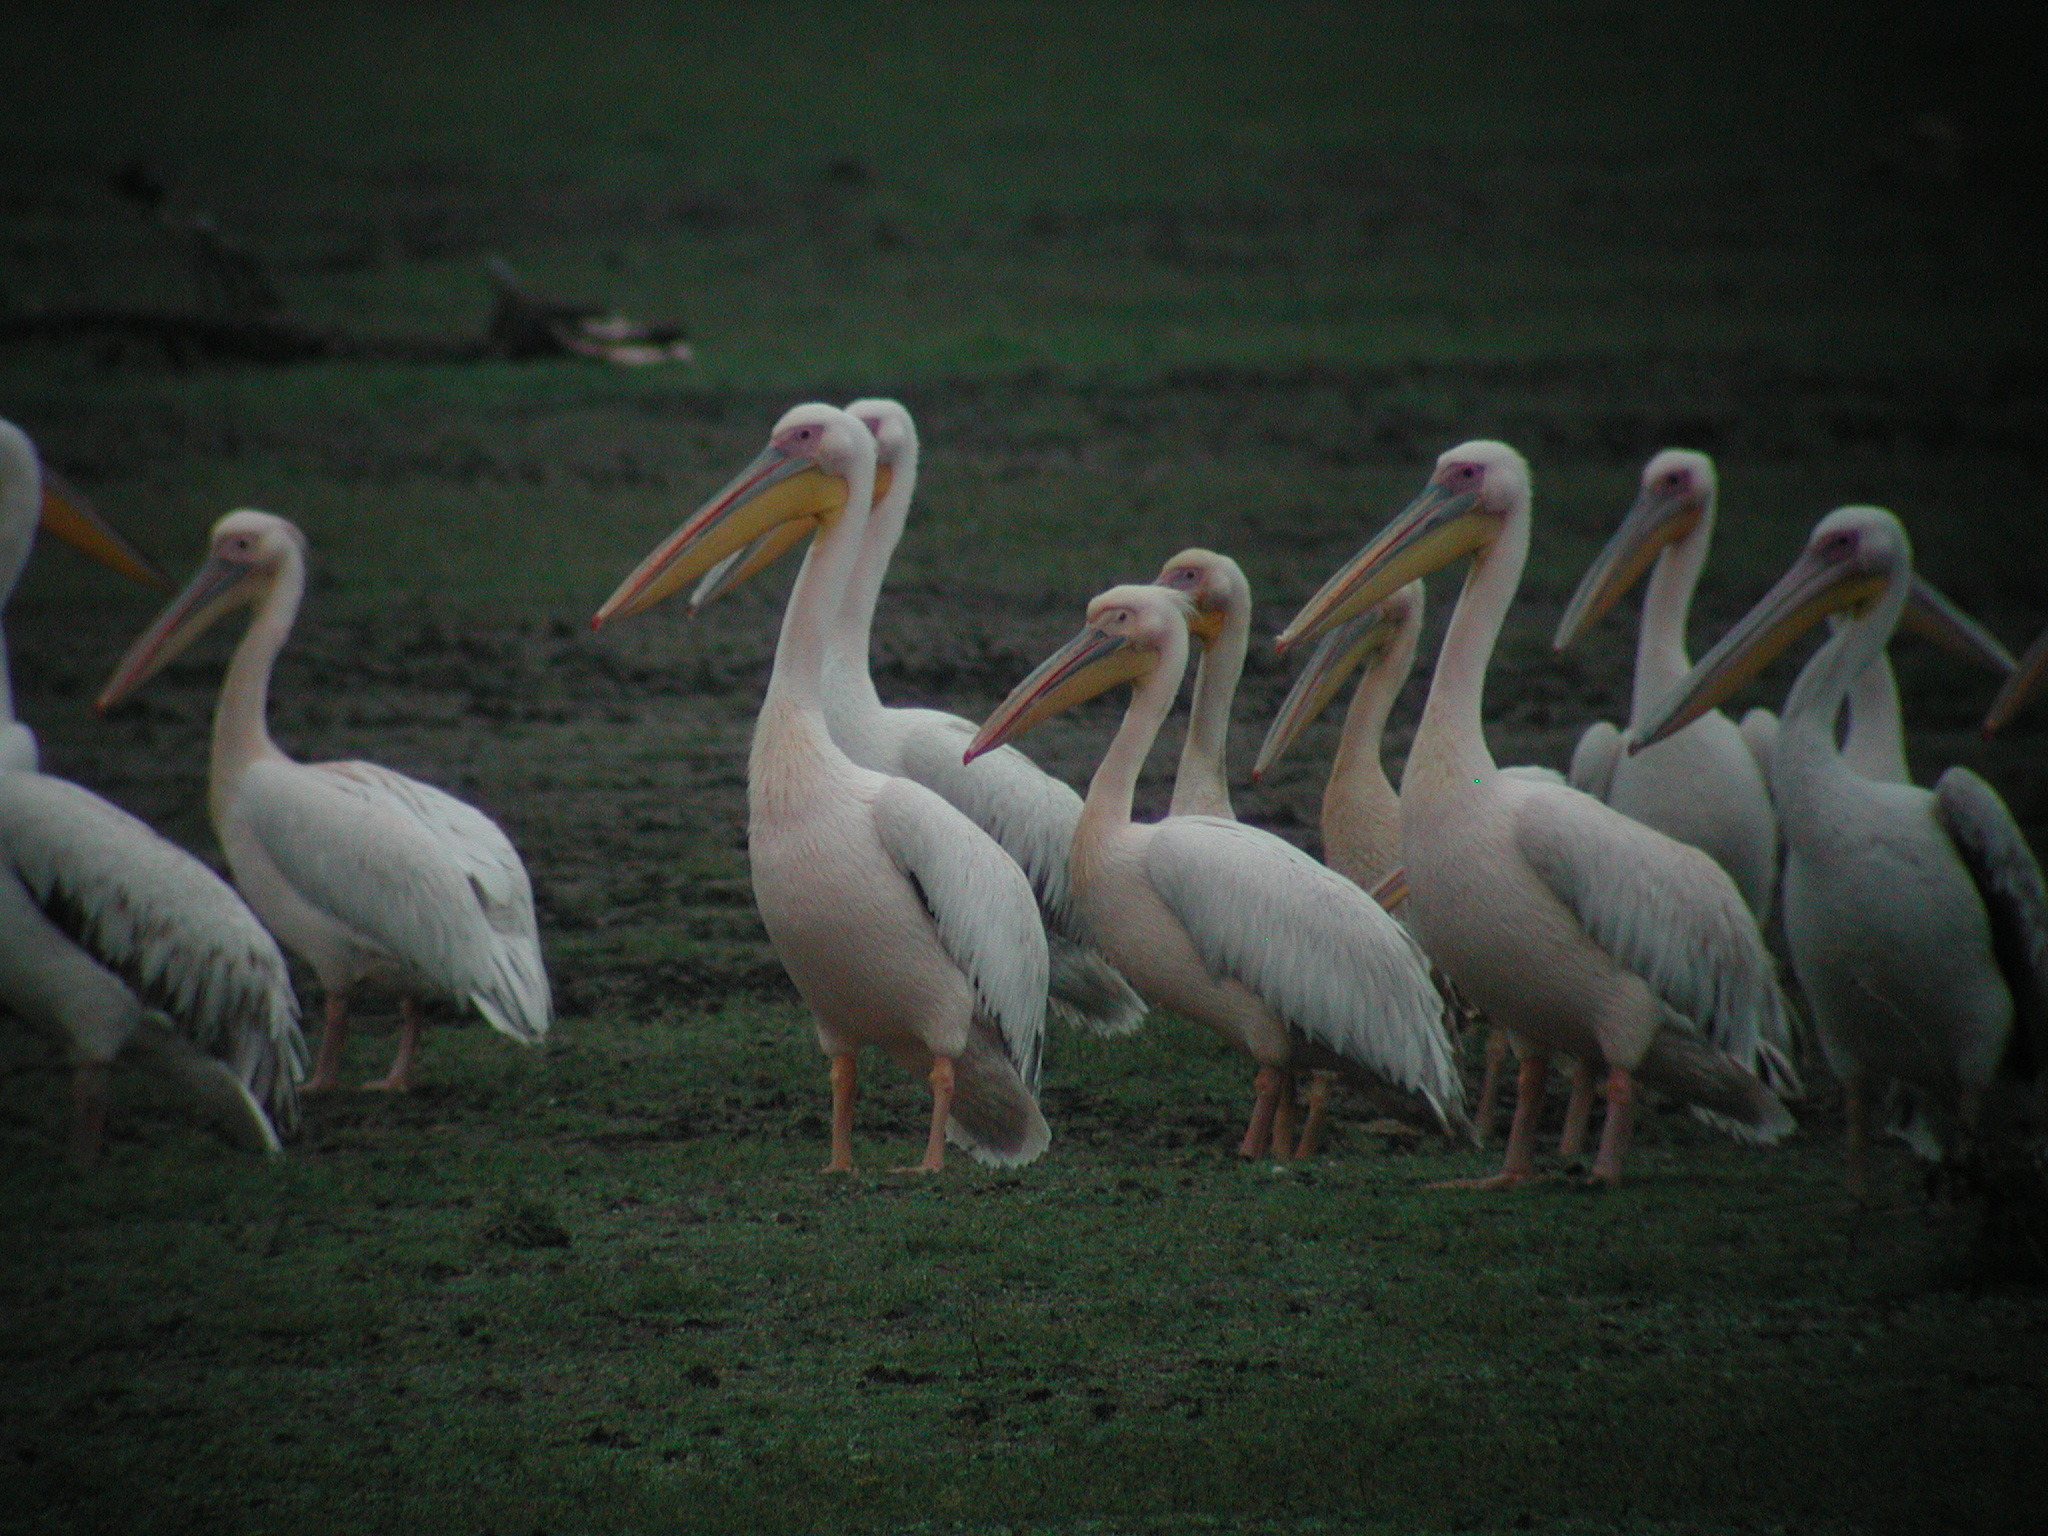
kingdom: Animalia
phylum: Chordata
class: Aves
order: Pelecaniformes
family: Pelecanidae
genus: Pelecanus
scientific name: Pelecanus onocrotalus
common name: Great white pelican
